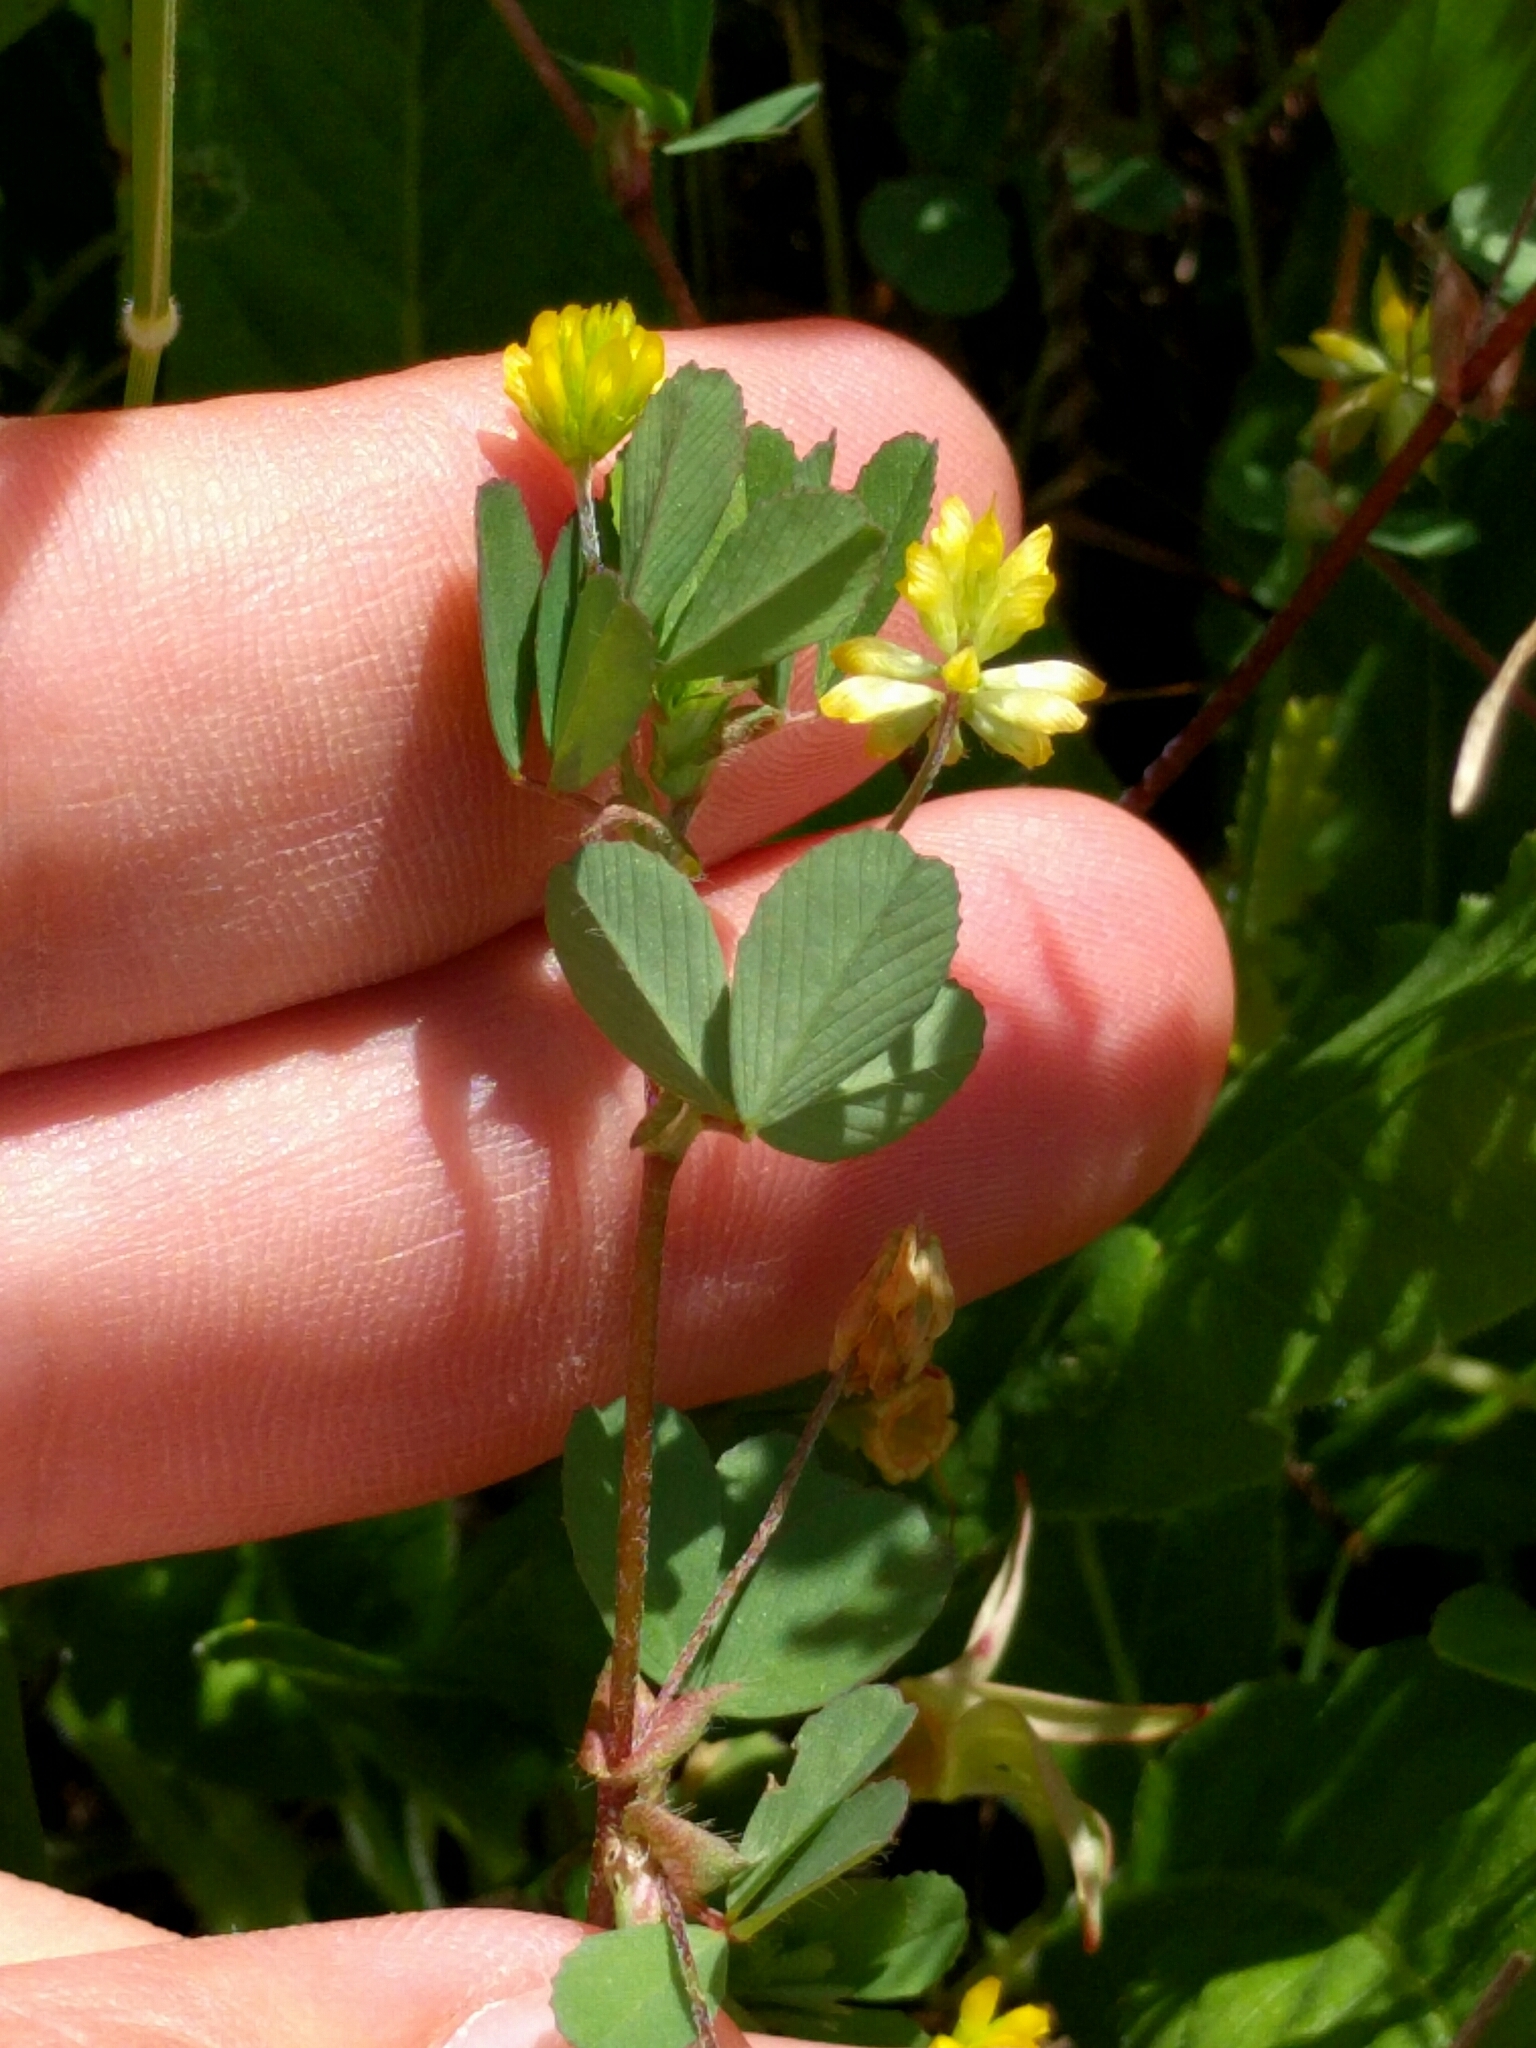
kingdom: Plantae
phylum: Tracheophyta
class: Magnoliopsida
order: Fabales
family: Fabaceae
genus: Trifolium
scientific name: Trifolium dubium
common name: Suckling clover
